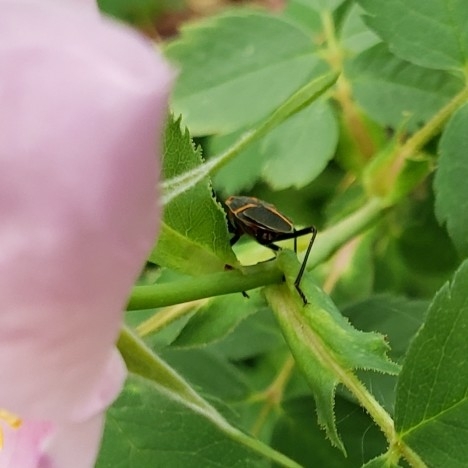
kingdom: Animalia
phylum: Arthropoda
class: Insecta
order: Hemiptera
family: Rhopalidae
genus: Boisea
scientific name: Boisea trivittata
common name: Boxelder bug
